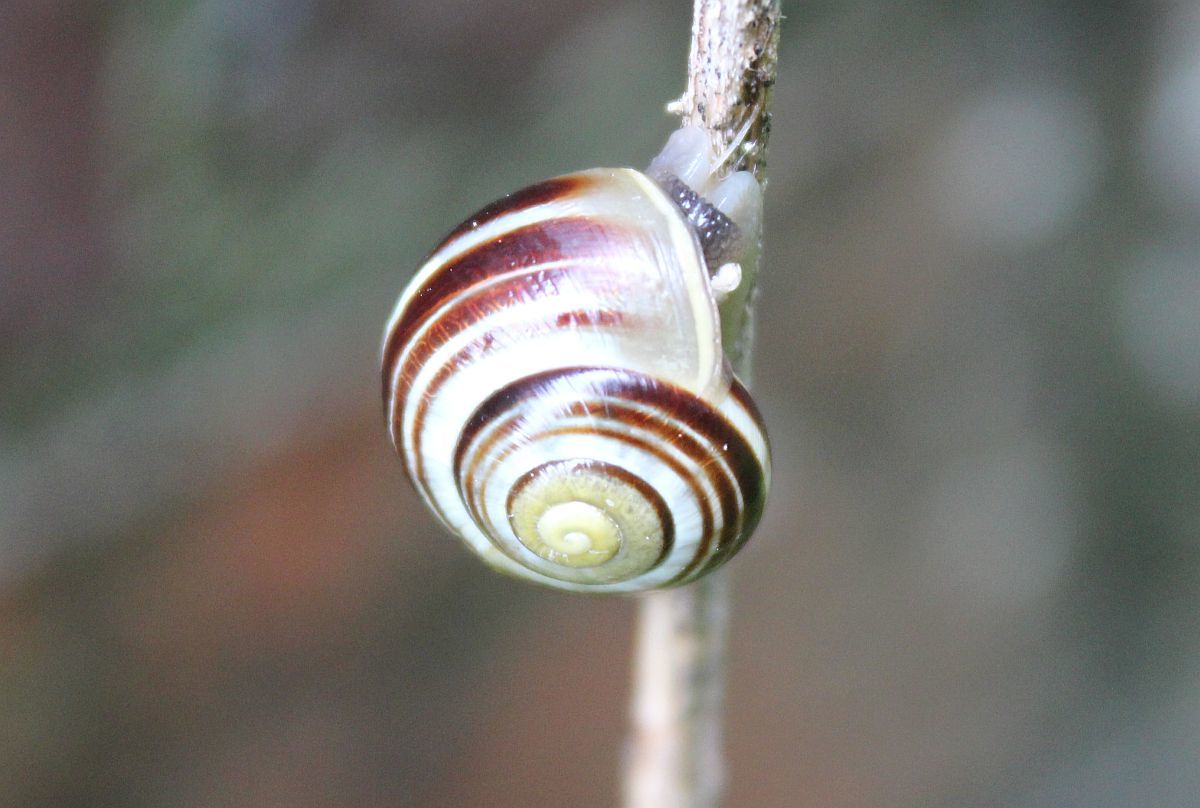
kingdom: Animalia
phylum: Mollusca
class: Gastropoda
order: Stylommatophora
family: Helicidae
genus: Cepaea
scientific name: Cepaea hortensis
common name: White-lip gardensnail
